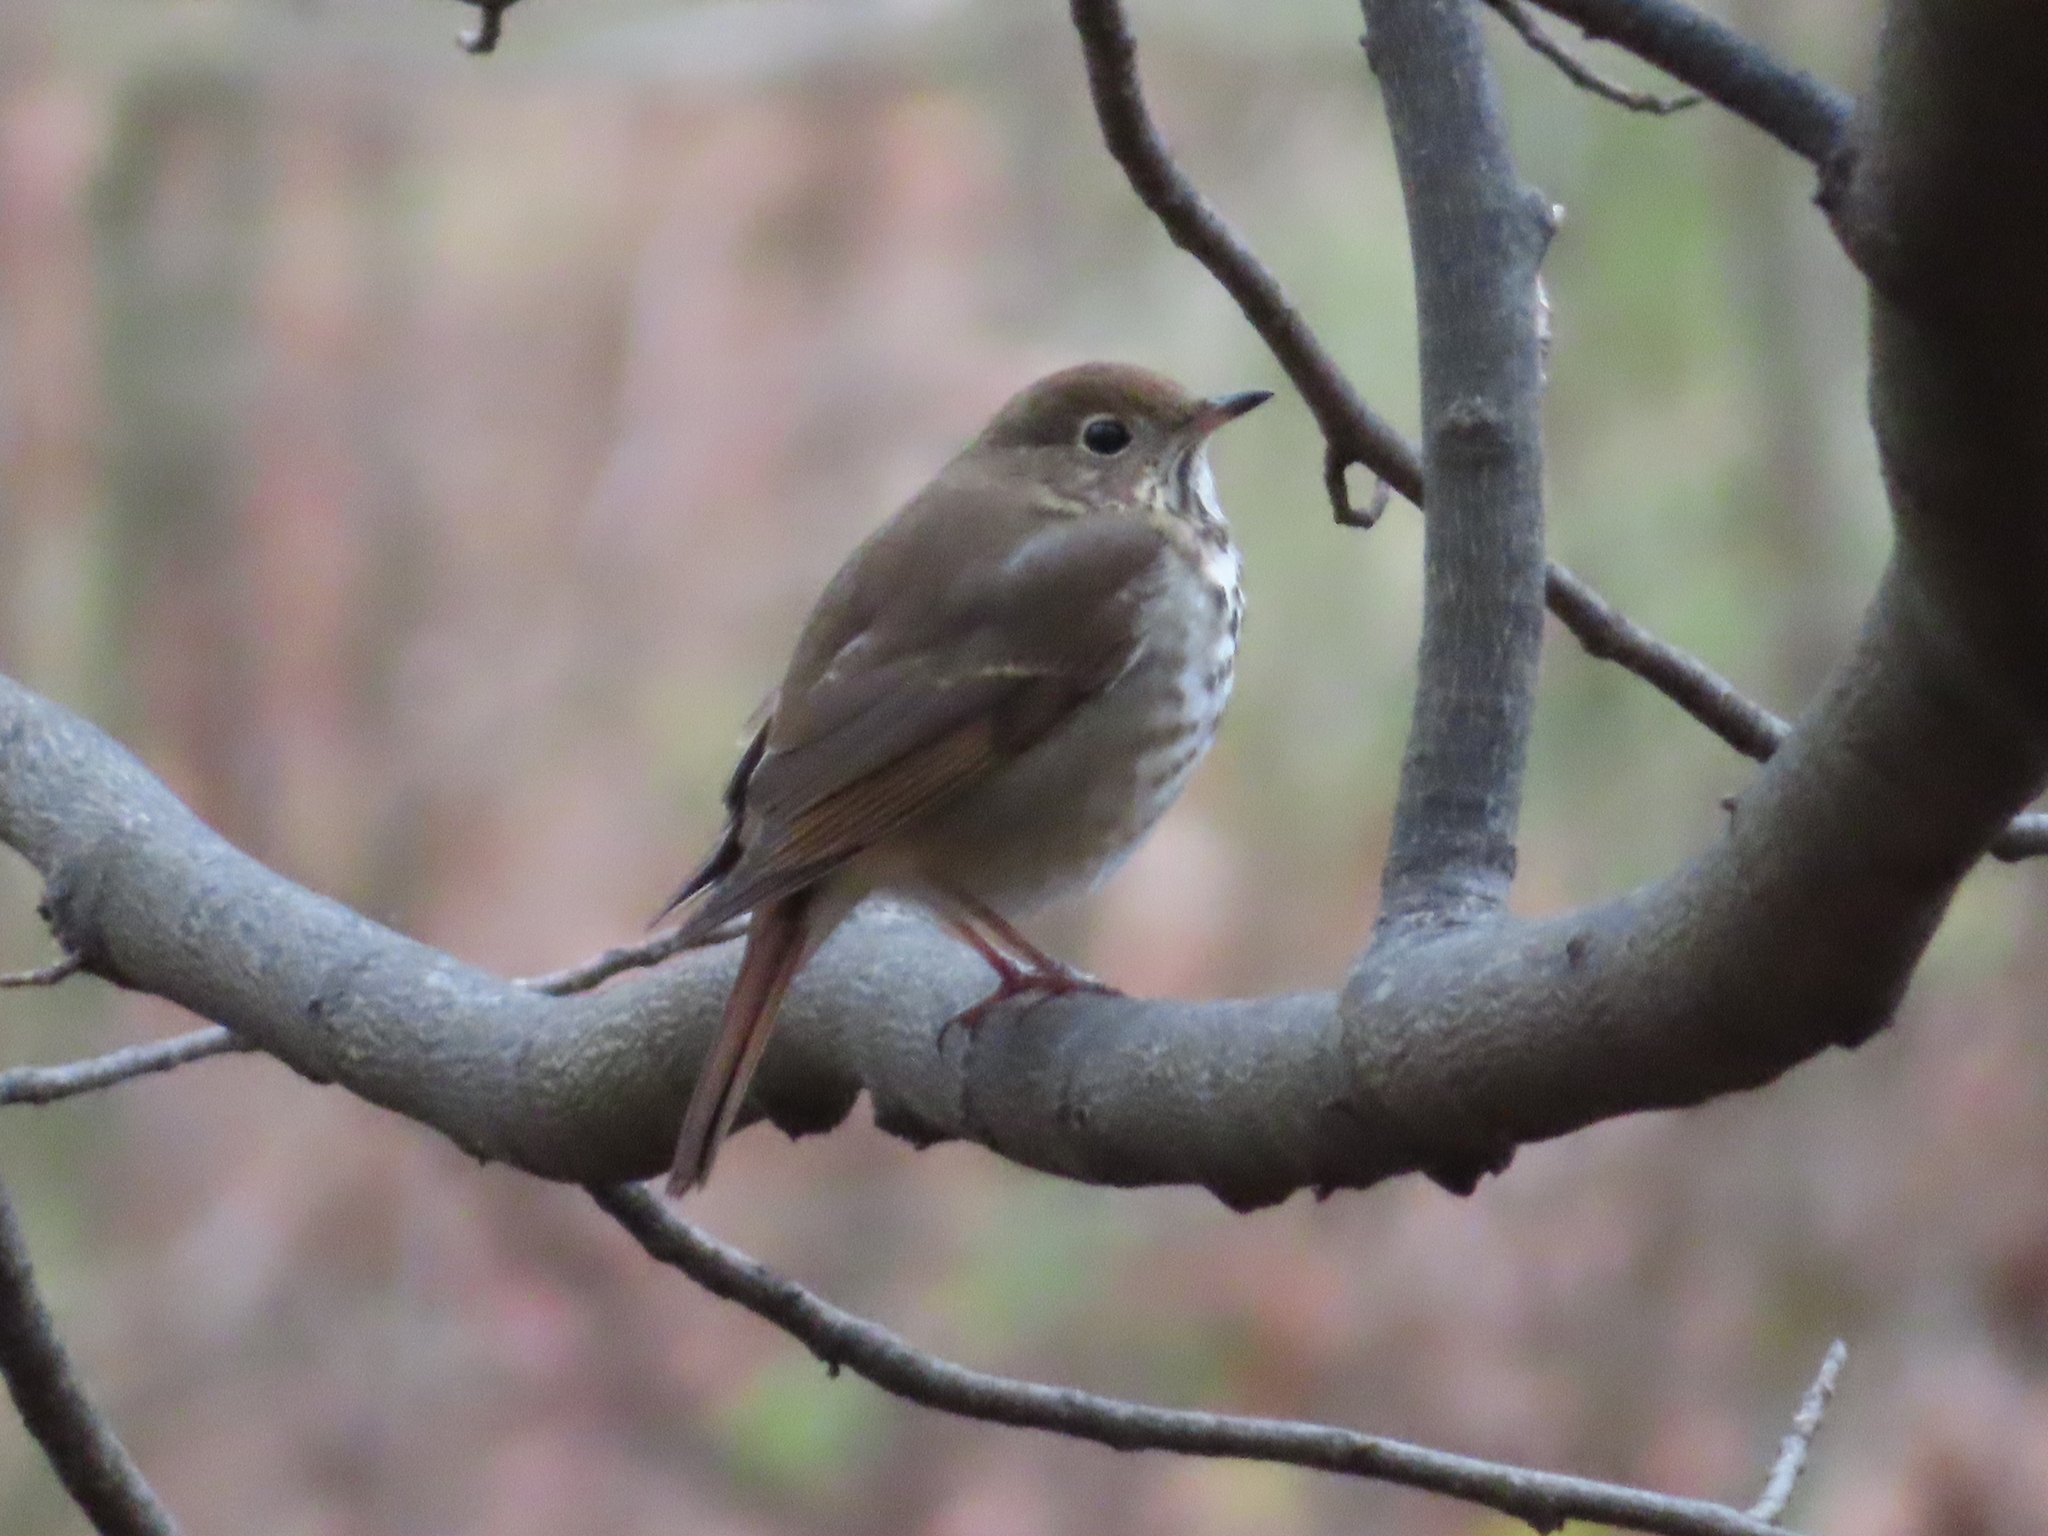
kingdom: Animalia
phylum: Chordata
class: Aves
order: Passeriformes
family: Turdidae
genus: Catharus
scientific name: Catharus guttatus
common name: Hermit thrush
